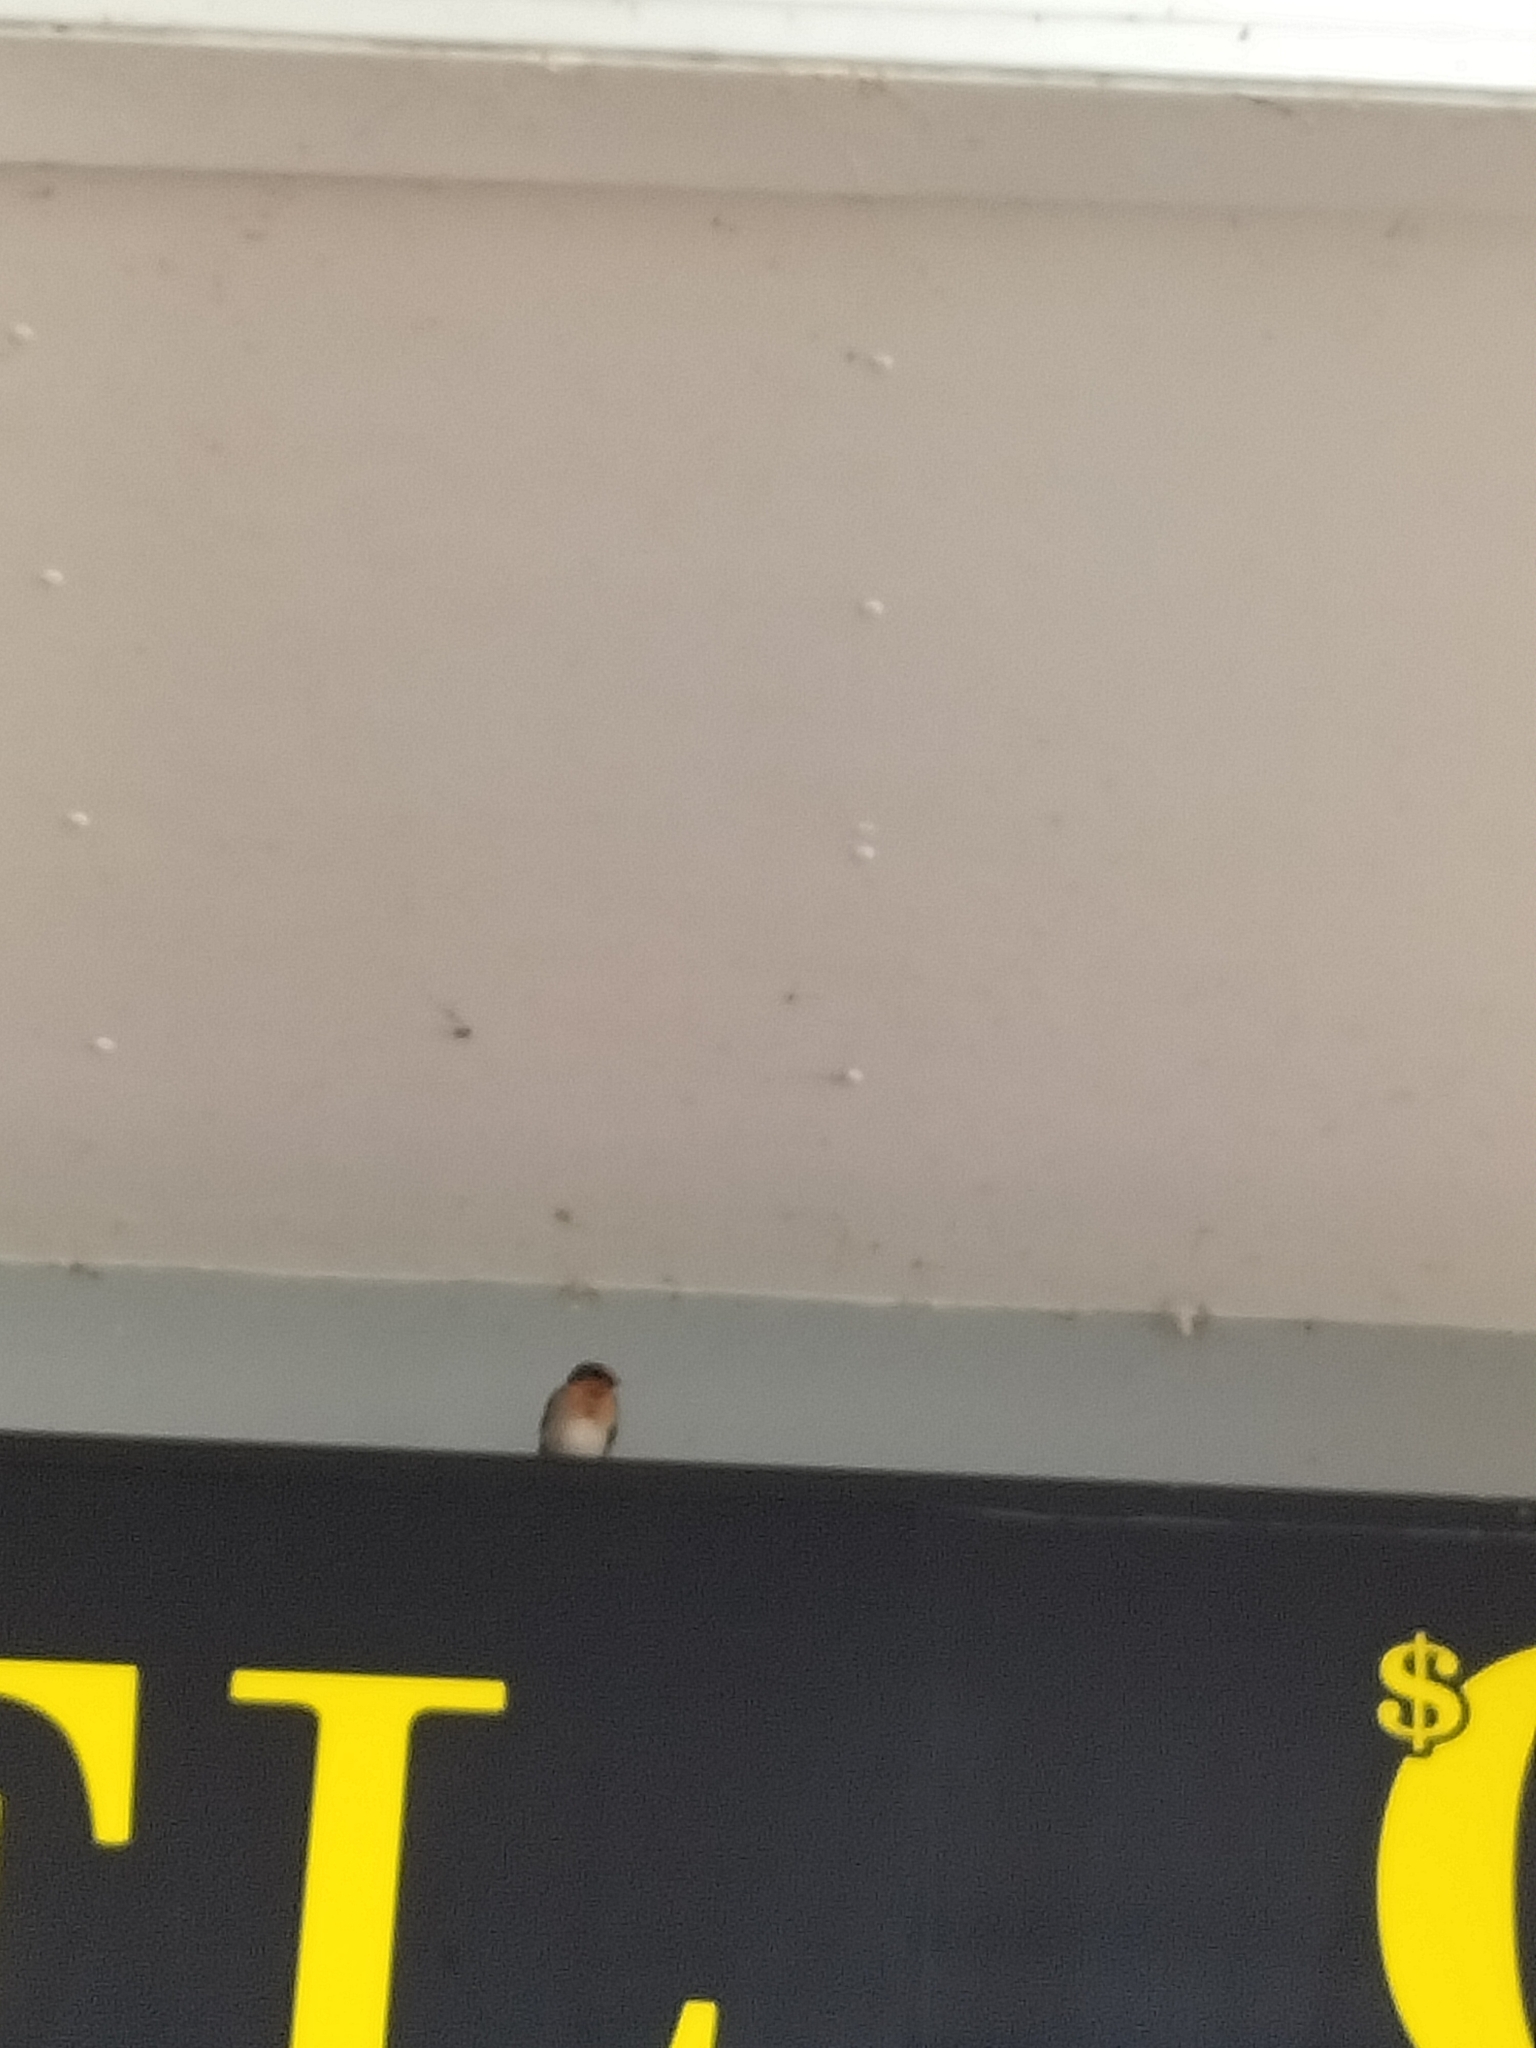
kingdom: Animalia
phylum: Chordata
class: Aves
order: Passeriformes
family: Hirundinidae
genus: Hirundo
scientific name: Hirundo neoxena
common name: Welcome swallow
